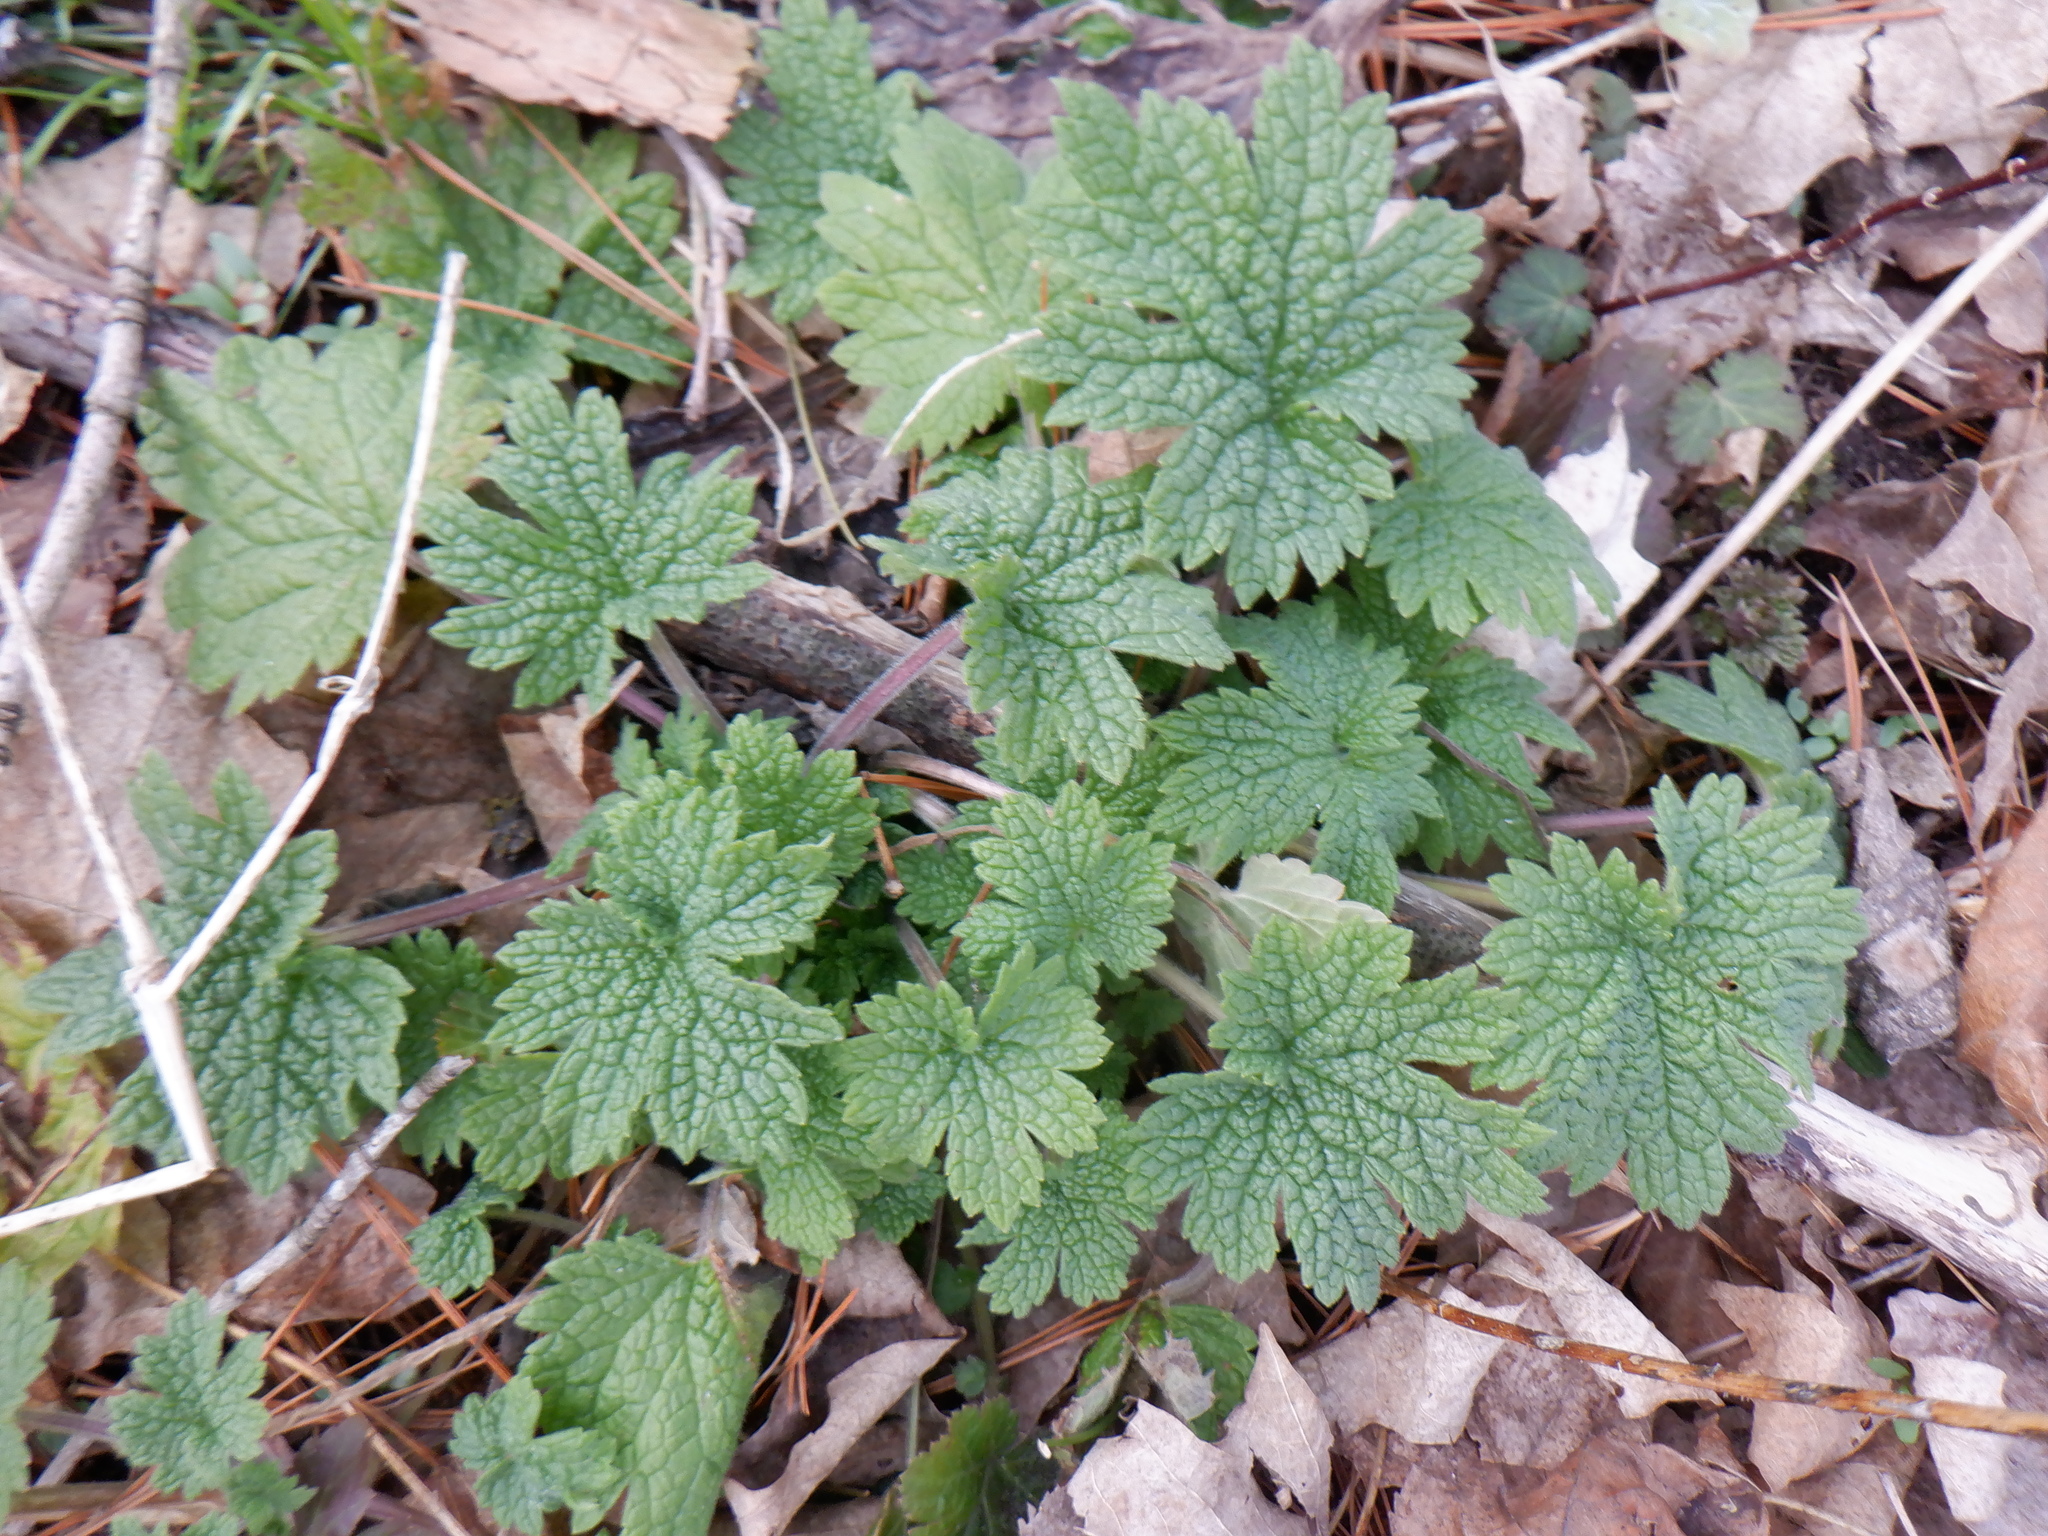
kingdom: Plantae
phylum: Tracheophyta
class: Magnoliopsida
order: Lamiales
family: Lamiaceae
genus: Leonurus
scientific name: Leonurus cardiaca
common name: Motherwort
